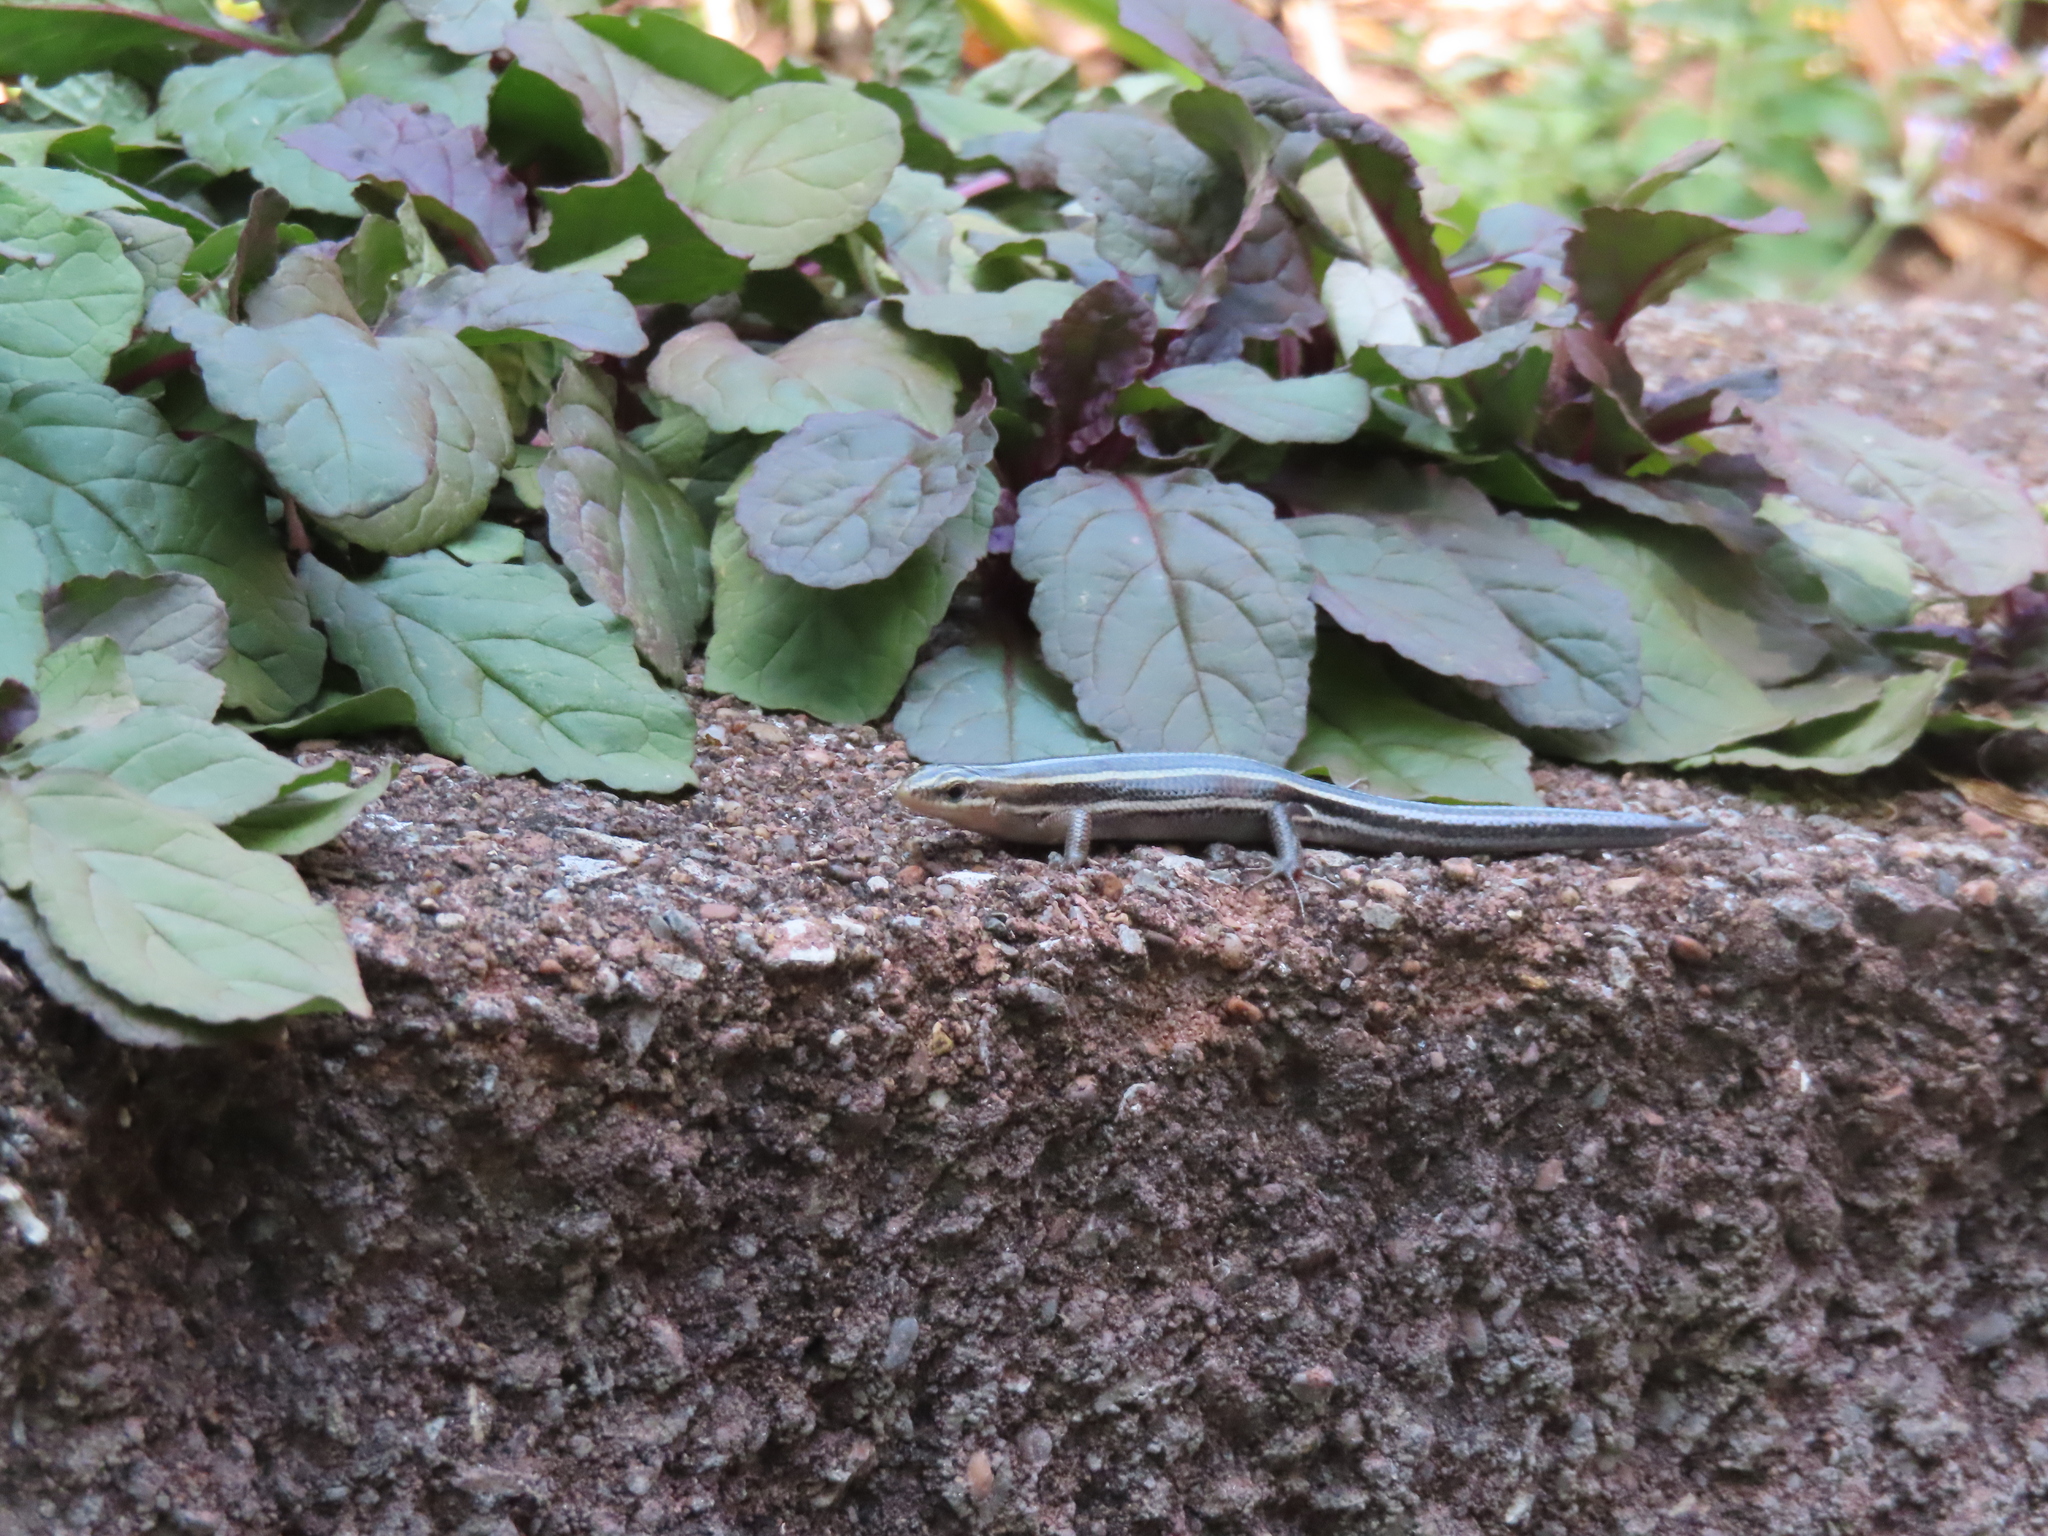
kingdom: Animalia
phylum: Chordata
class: Squamata
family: Scincidae
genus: Plestiodon
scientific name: Plestiodon fasciatus
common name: Five-lined skink
